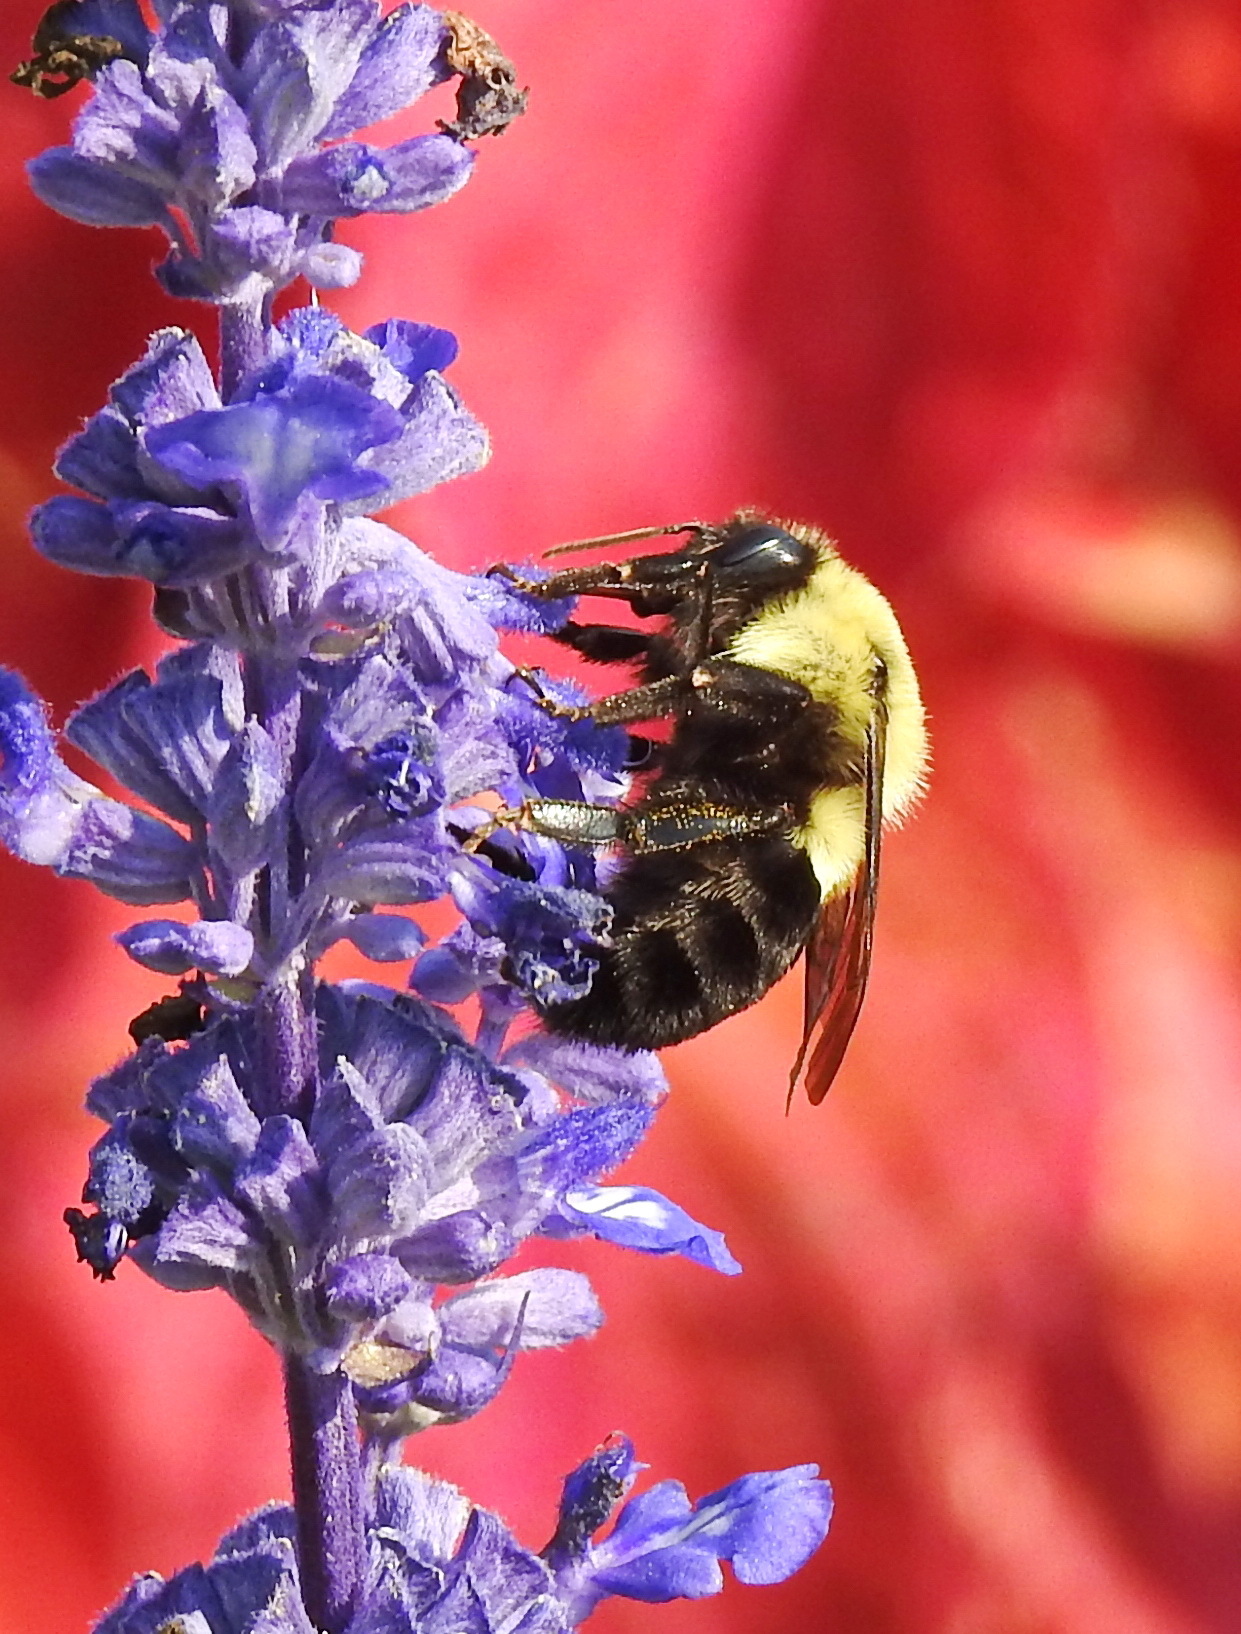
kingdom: Animalia
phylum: Arthropoda
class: Insecta
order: Hymenoptera
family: Apidae
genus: Bombus
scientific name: Bombus impatiens
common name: Common eastern bumble bee
